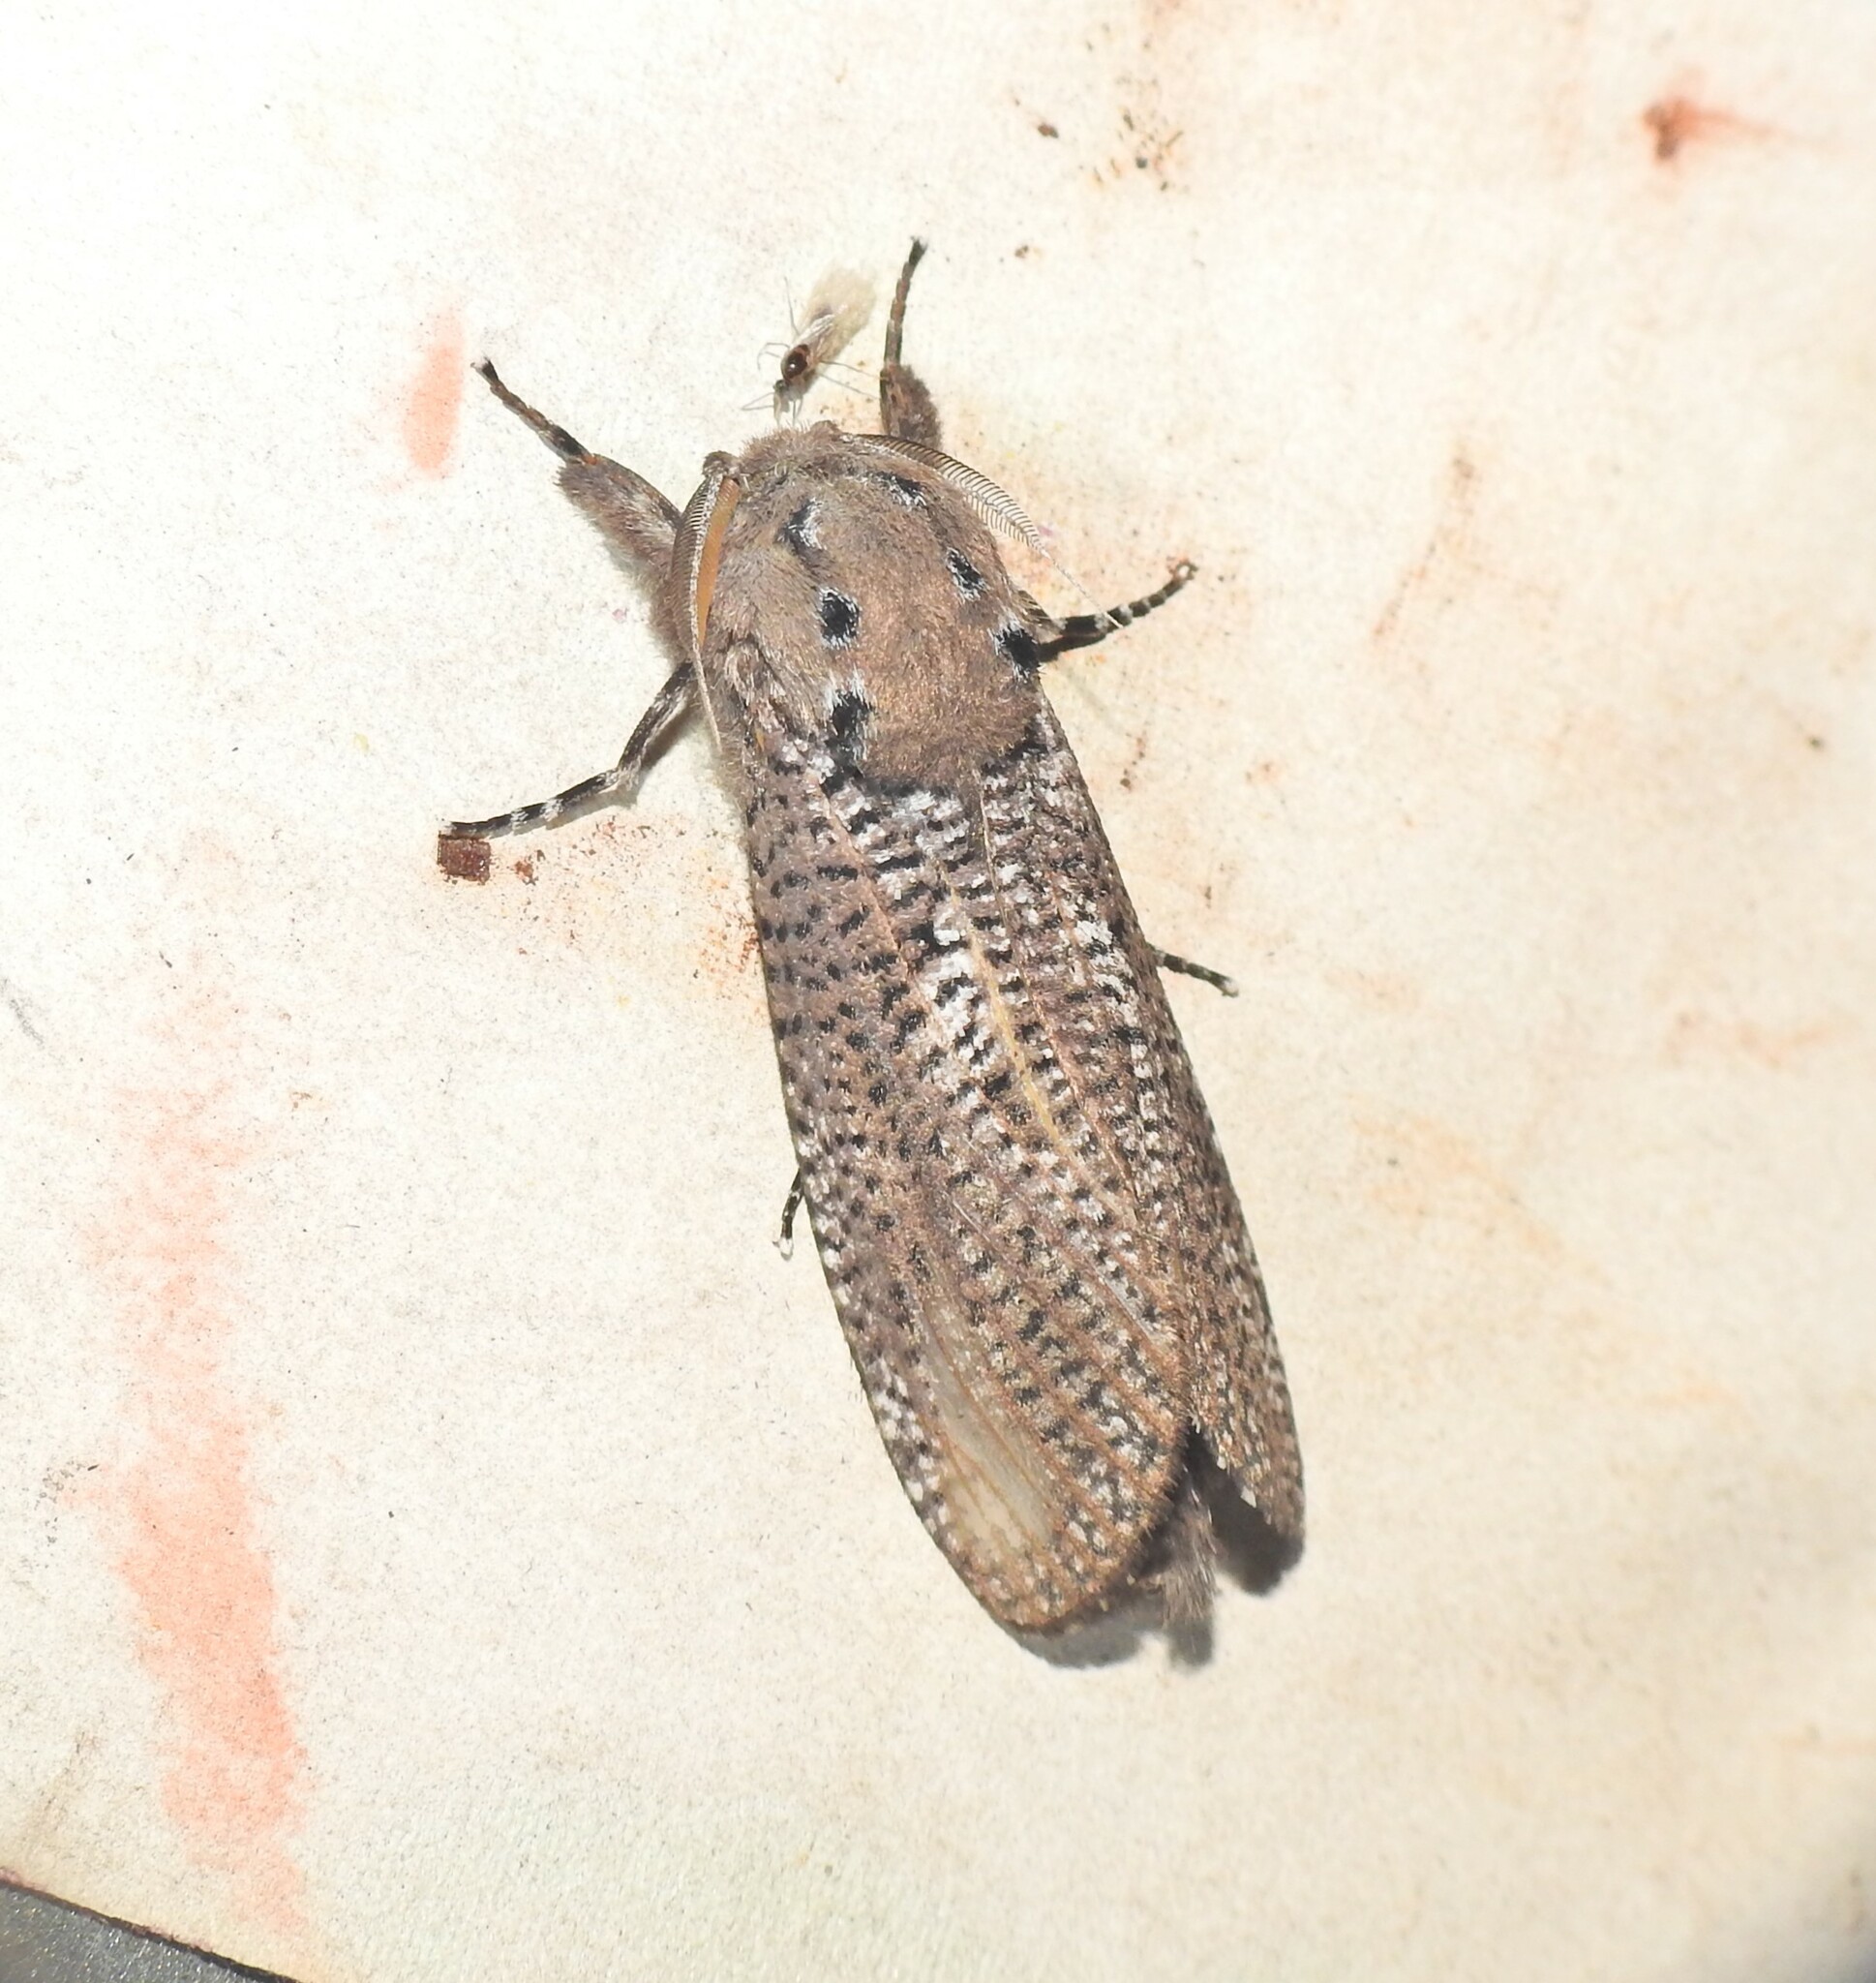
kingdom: Animalia
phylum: Arthropoda
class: Insecta
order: Lepidoptera
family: Cossidae
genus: Endoxyla
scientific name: Endoxyla dictyoschema
